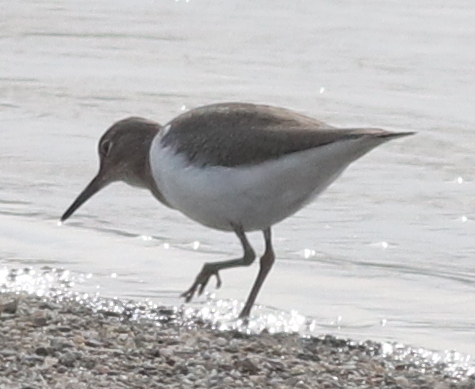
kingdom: Animalia
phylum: Chordata
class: Aves
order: Charadriiformes
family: Scolopacidae
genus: Actitis
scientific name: Actitis hypoleucos
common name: Common sandpiper
